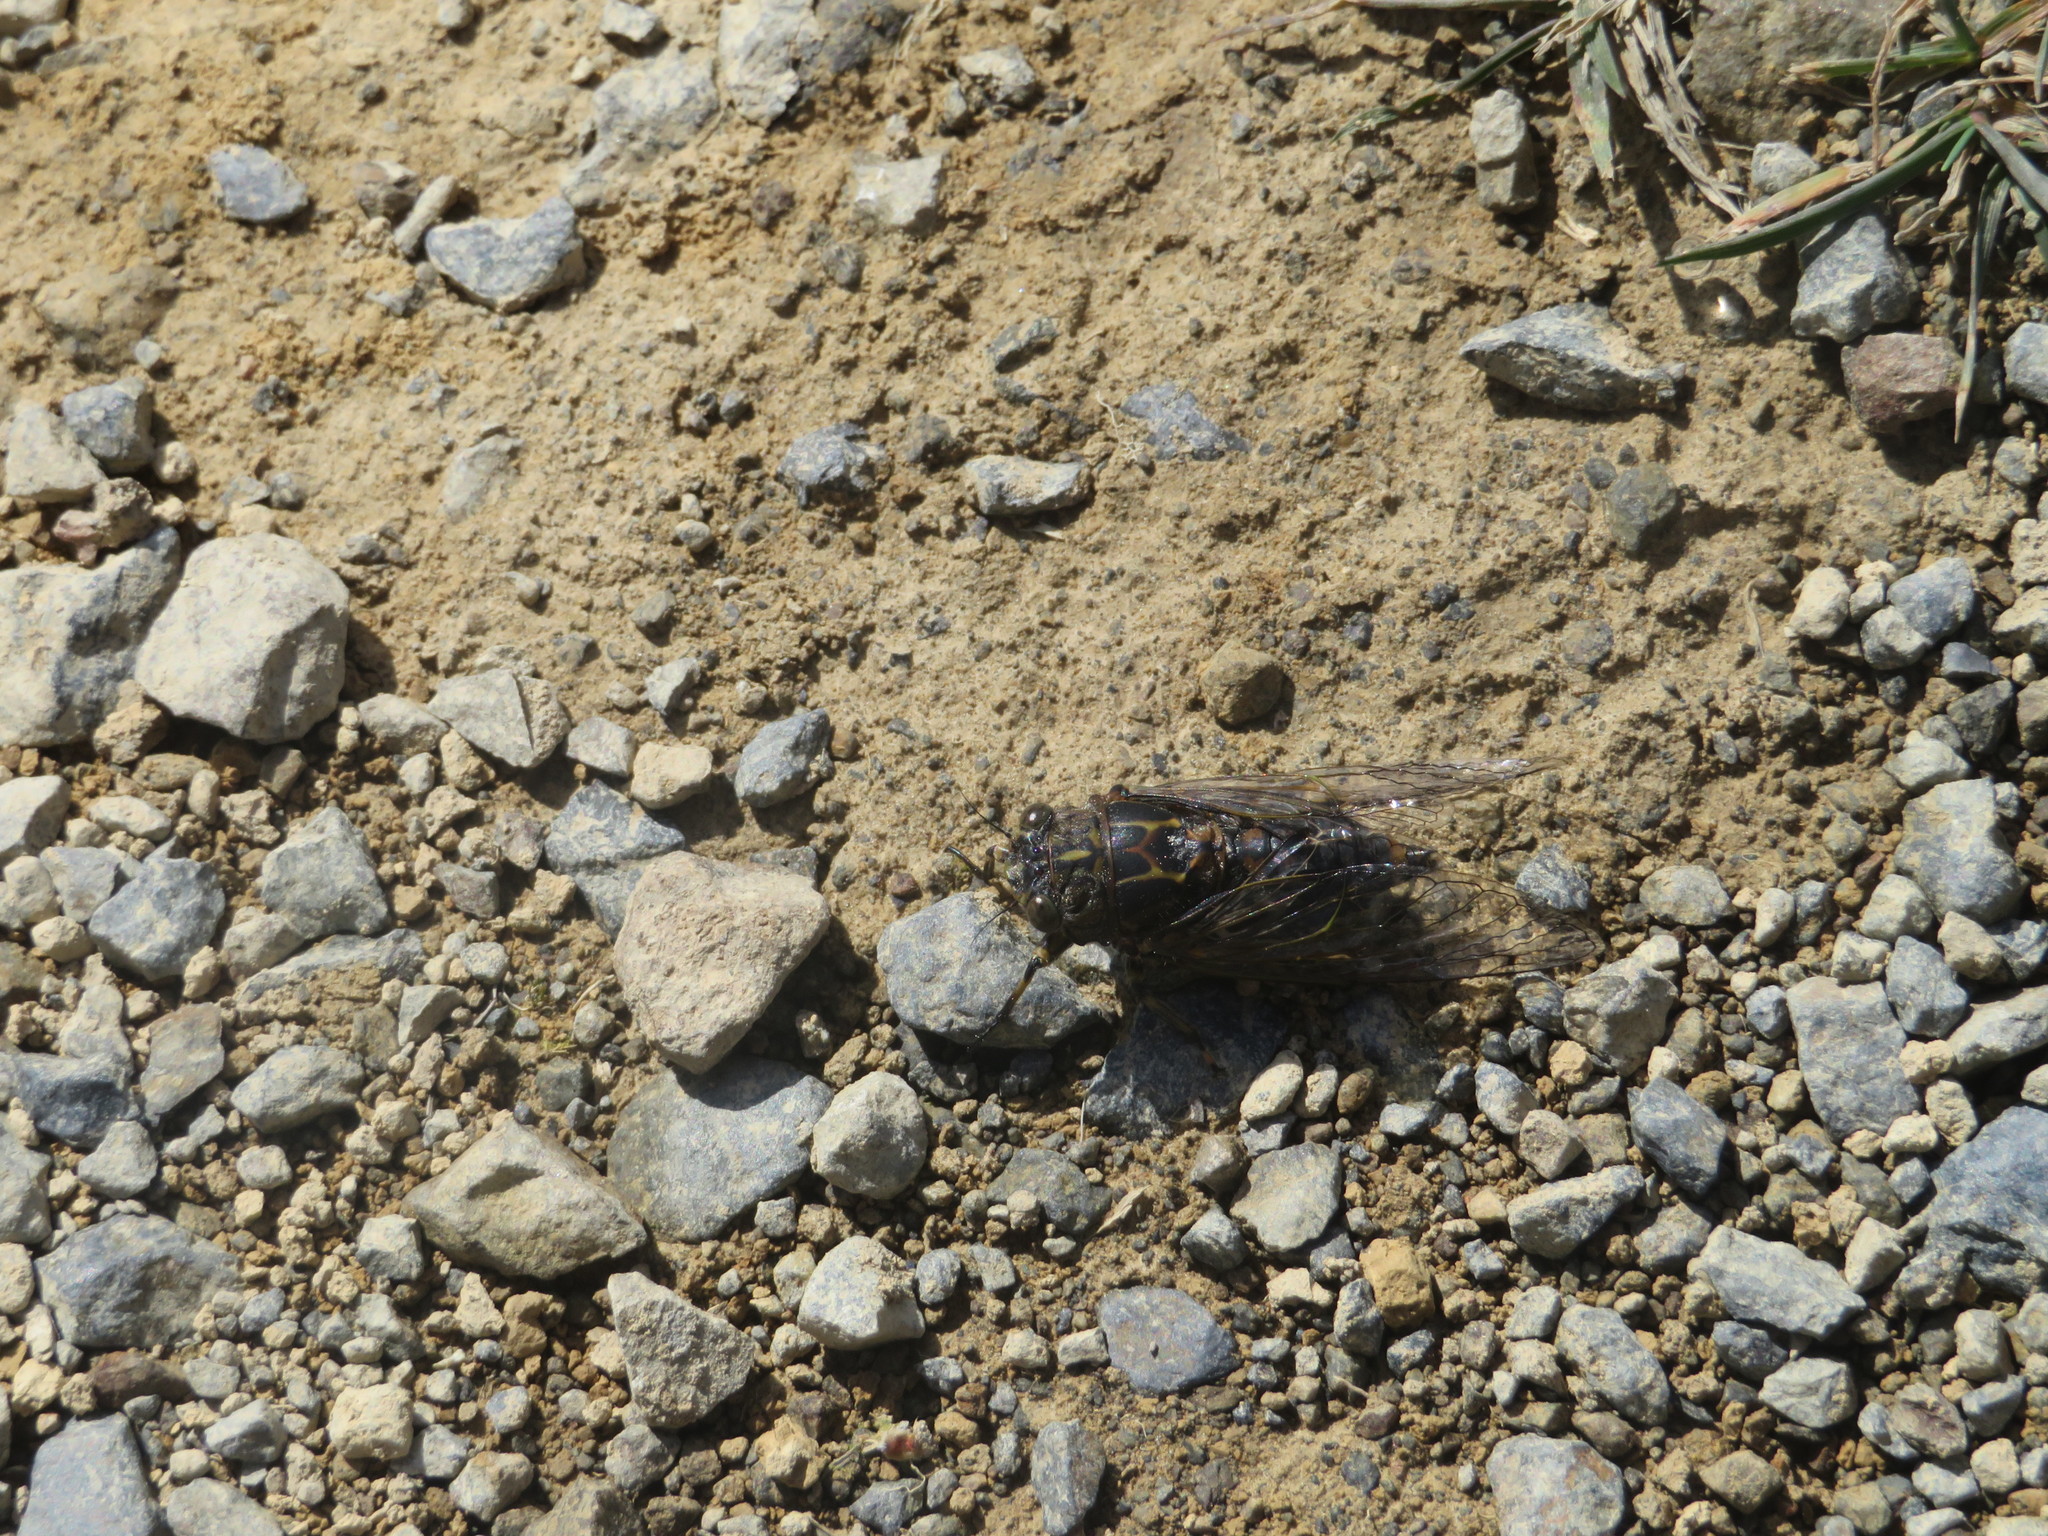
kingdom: Animalia
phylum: Arthropoda
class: Insecta
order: Hemiptera
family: Cicadidae
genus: Amphipsalta
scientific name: Amphipsalta strepitans
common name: Chirping cicada
